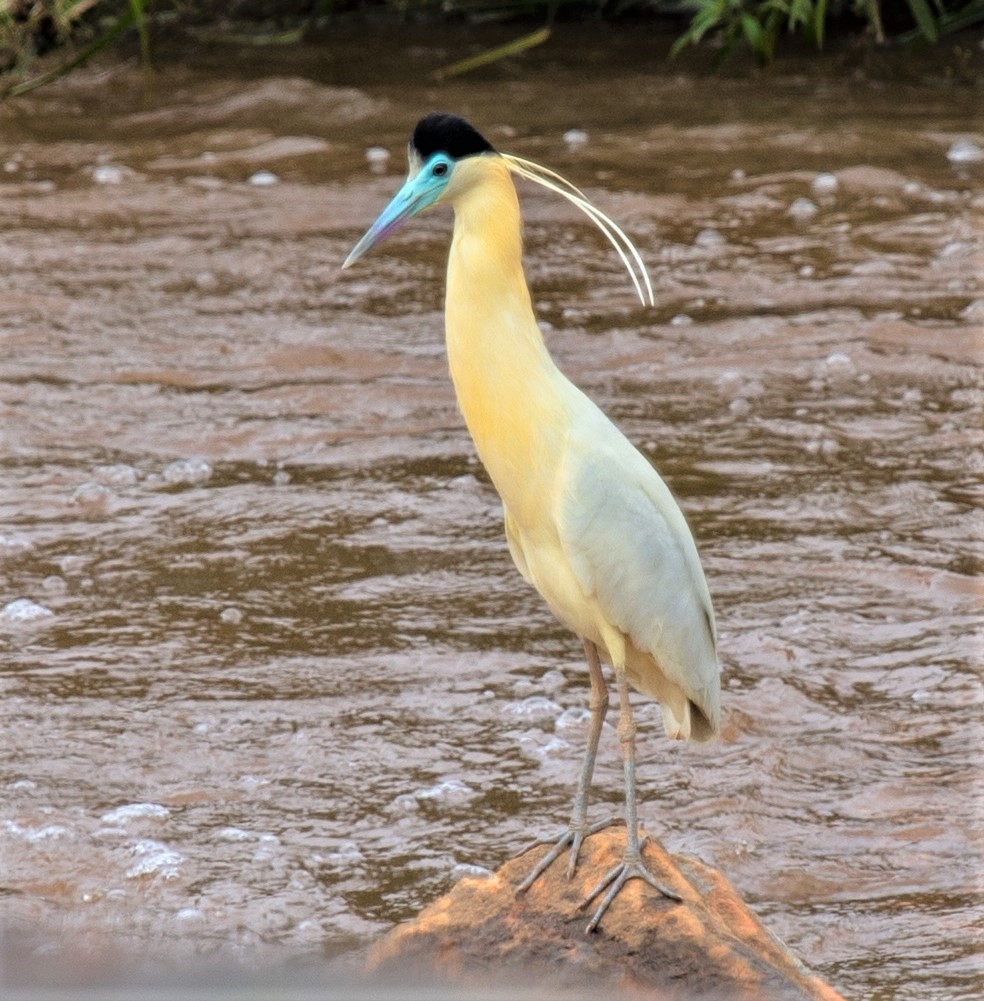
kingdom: Animalia
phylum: Chordata
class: Aves
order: Pelecaniformes
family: Ardeidae
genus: Pilherodius
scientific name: Pilherodius pileatus
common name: Capped heron
